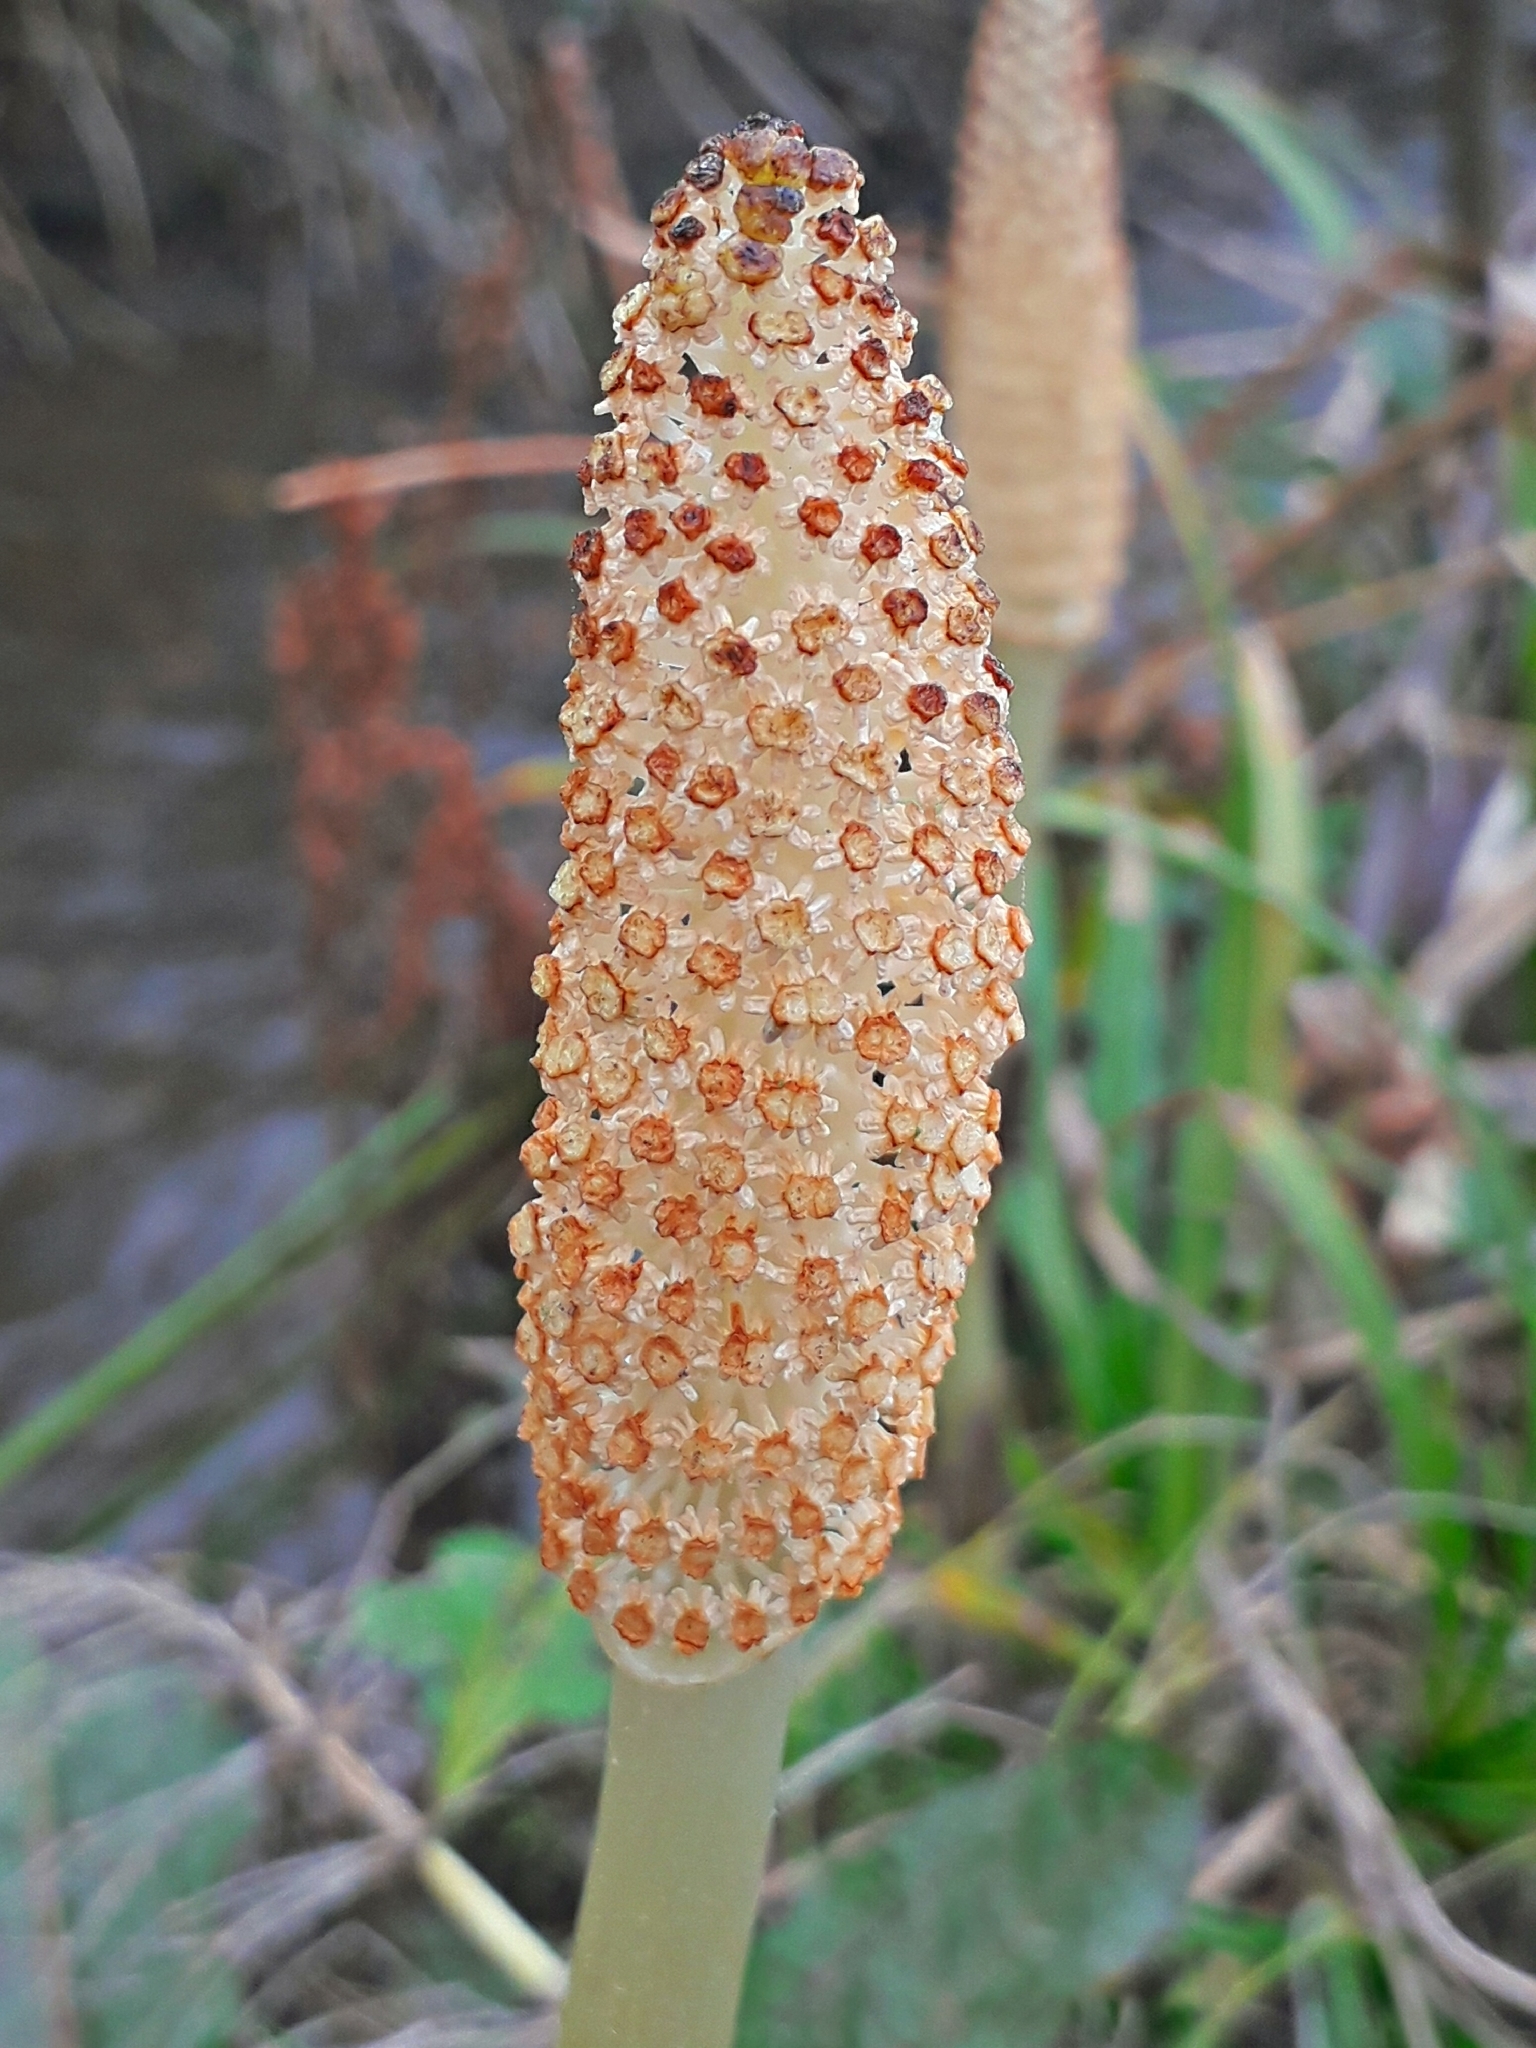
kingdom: Plantae
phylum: Tracheophyta
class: Polypodiopsida
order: Equisetales
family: Equisetaceae
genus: Equisetum
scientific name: Equisetum telmateia
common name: Great horsetail
